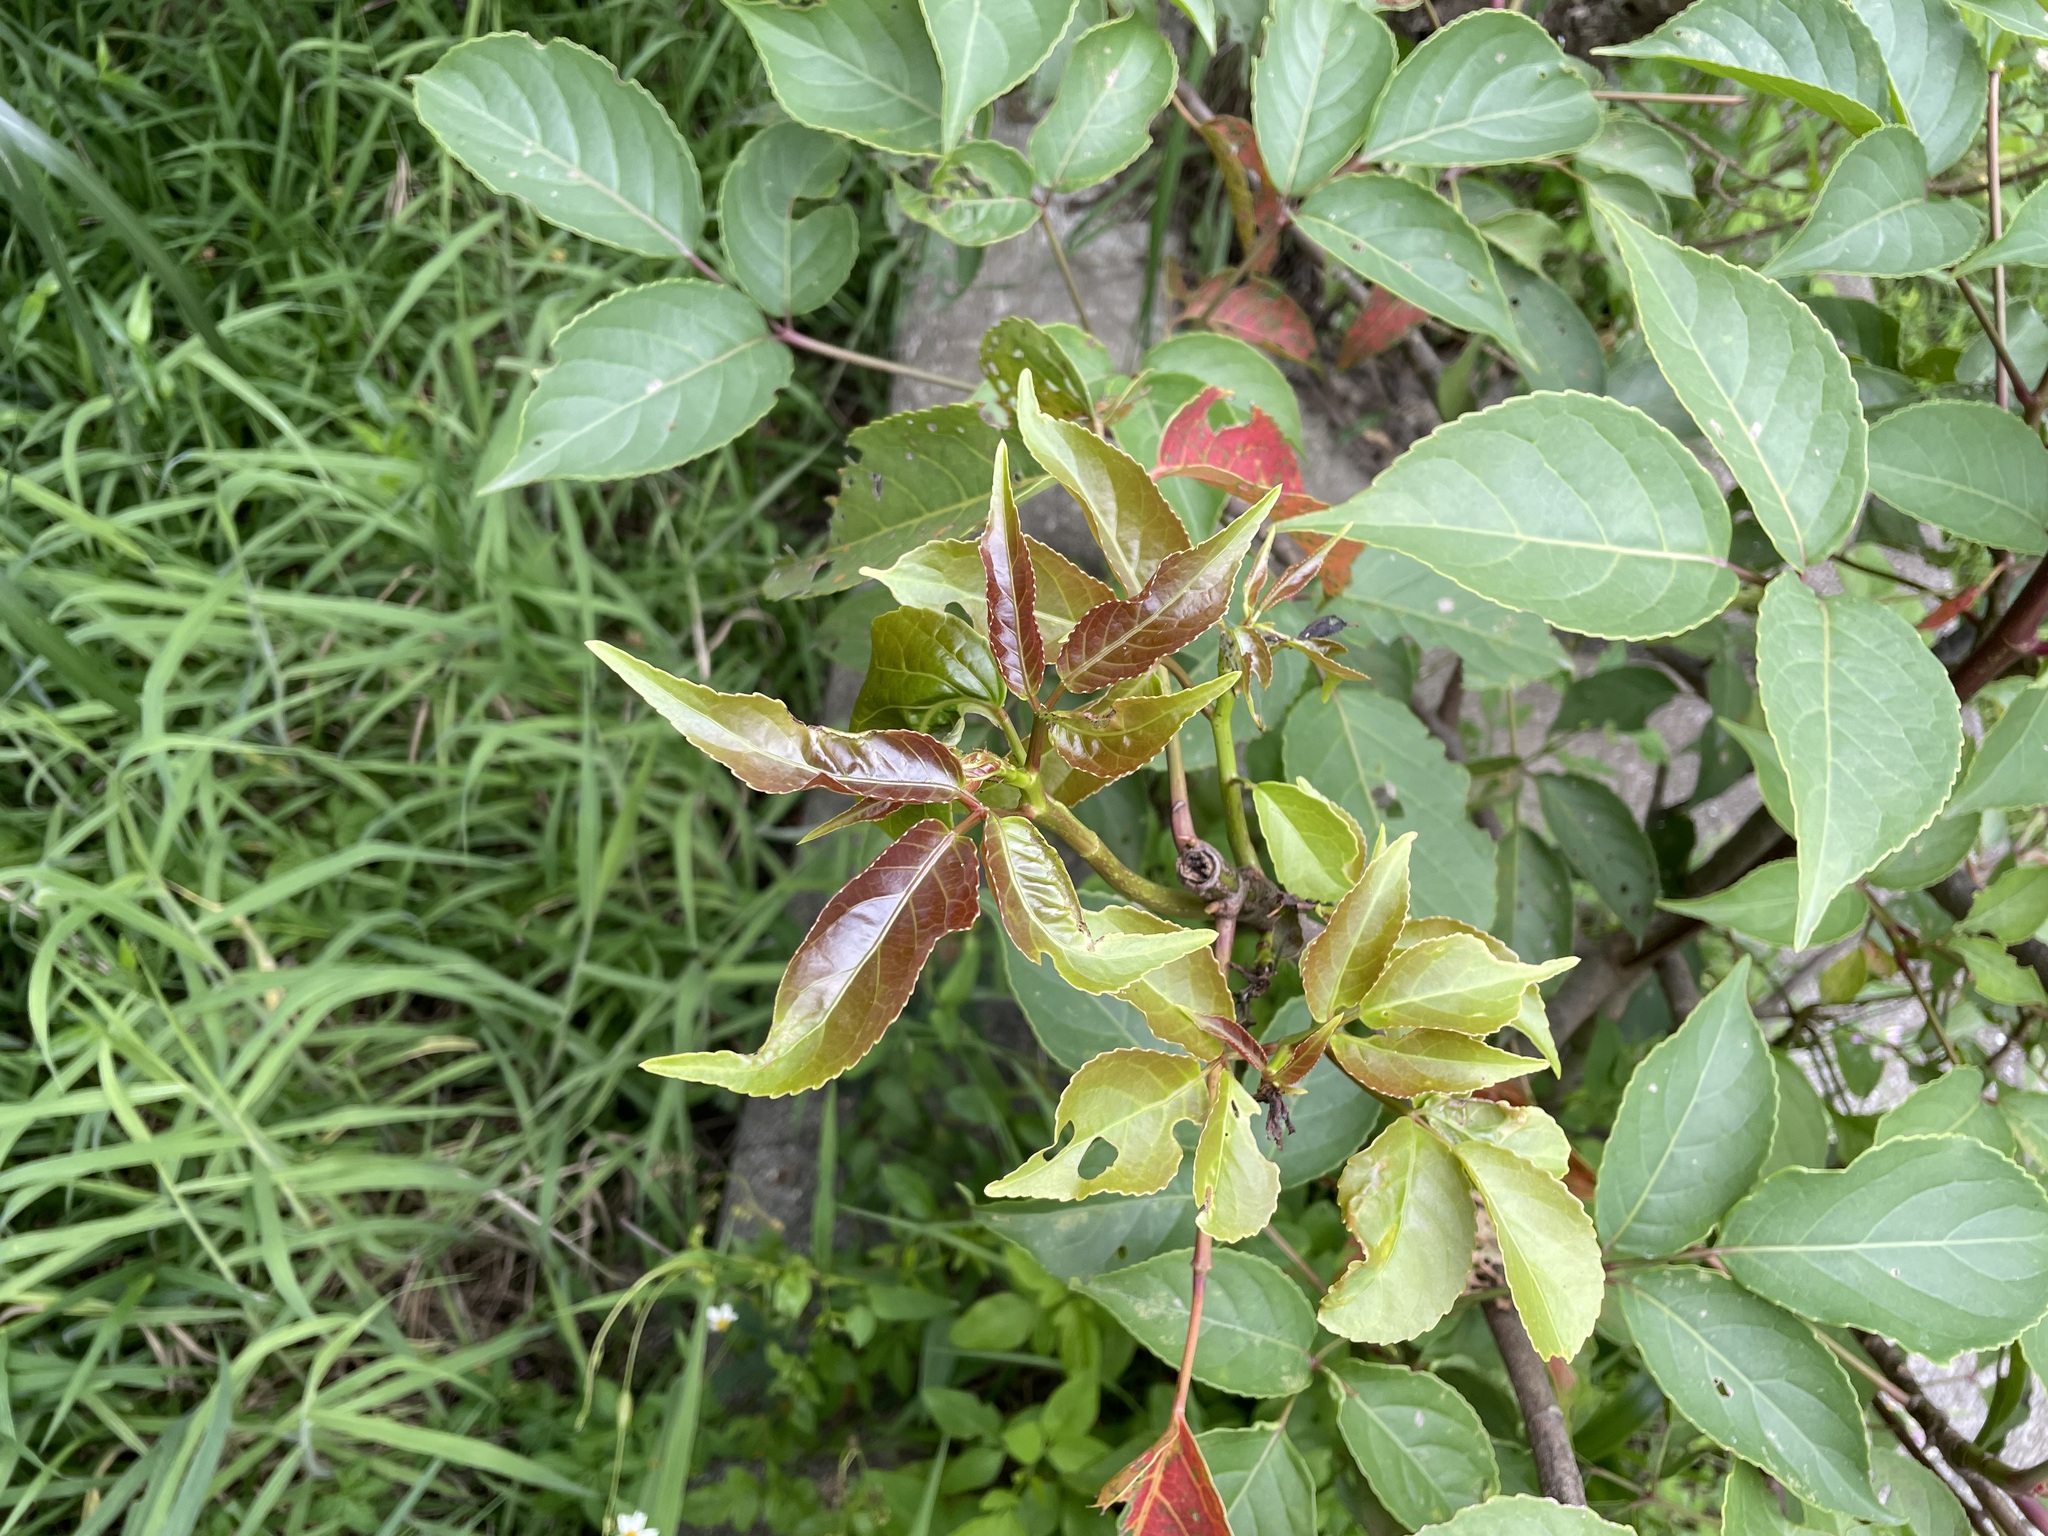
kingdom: Plantae
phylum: Tracheophyta
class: Magnoliopsida
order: Malpighiales
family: Phyllanthaceae
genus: Bischofia
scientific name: Bischofia javanica
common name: Javanese bishopwood
